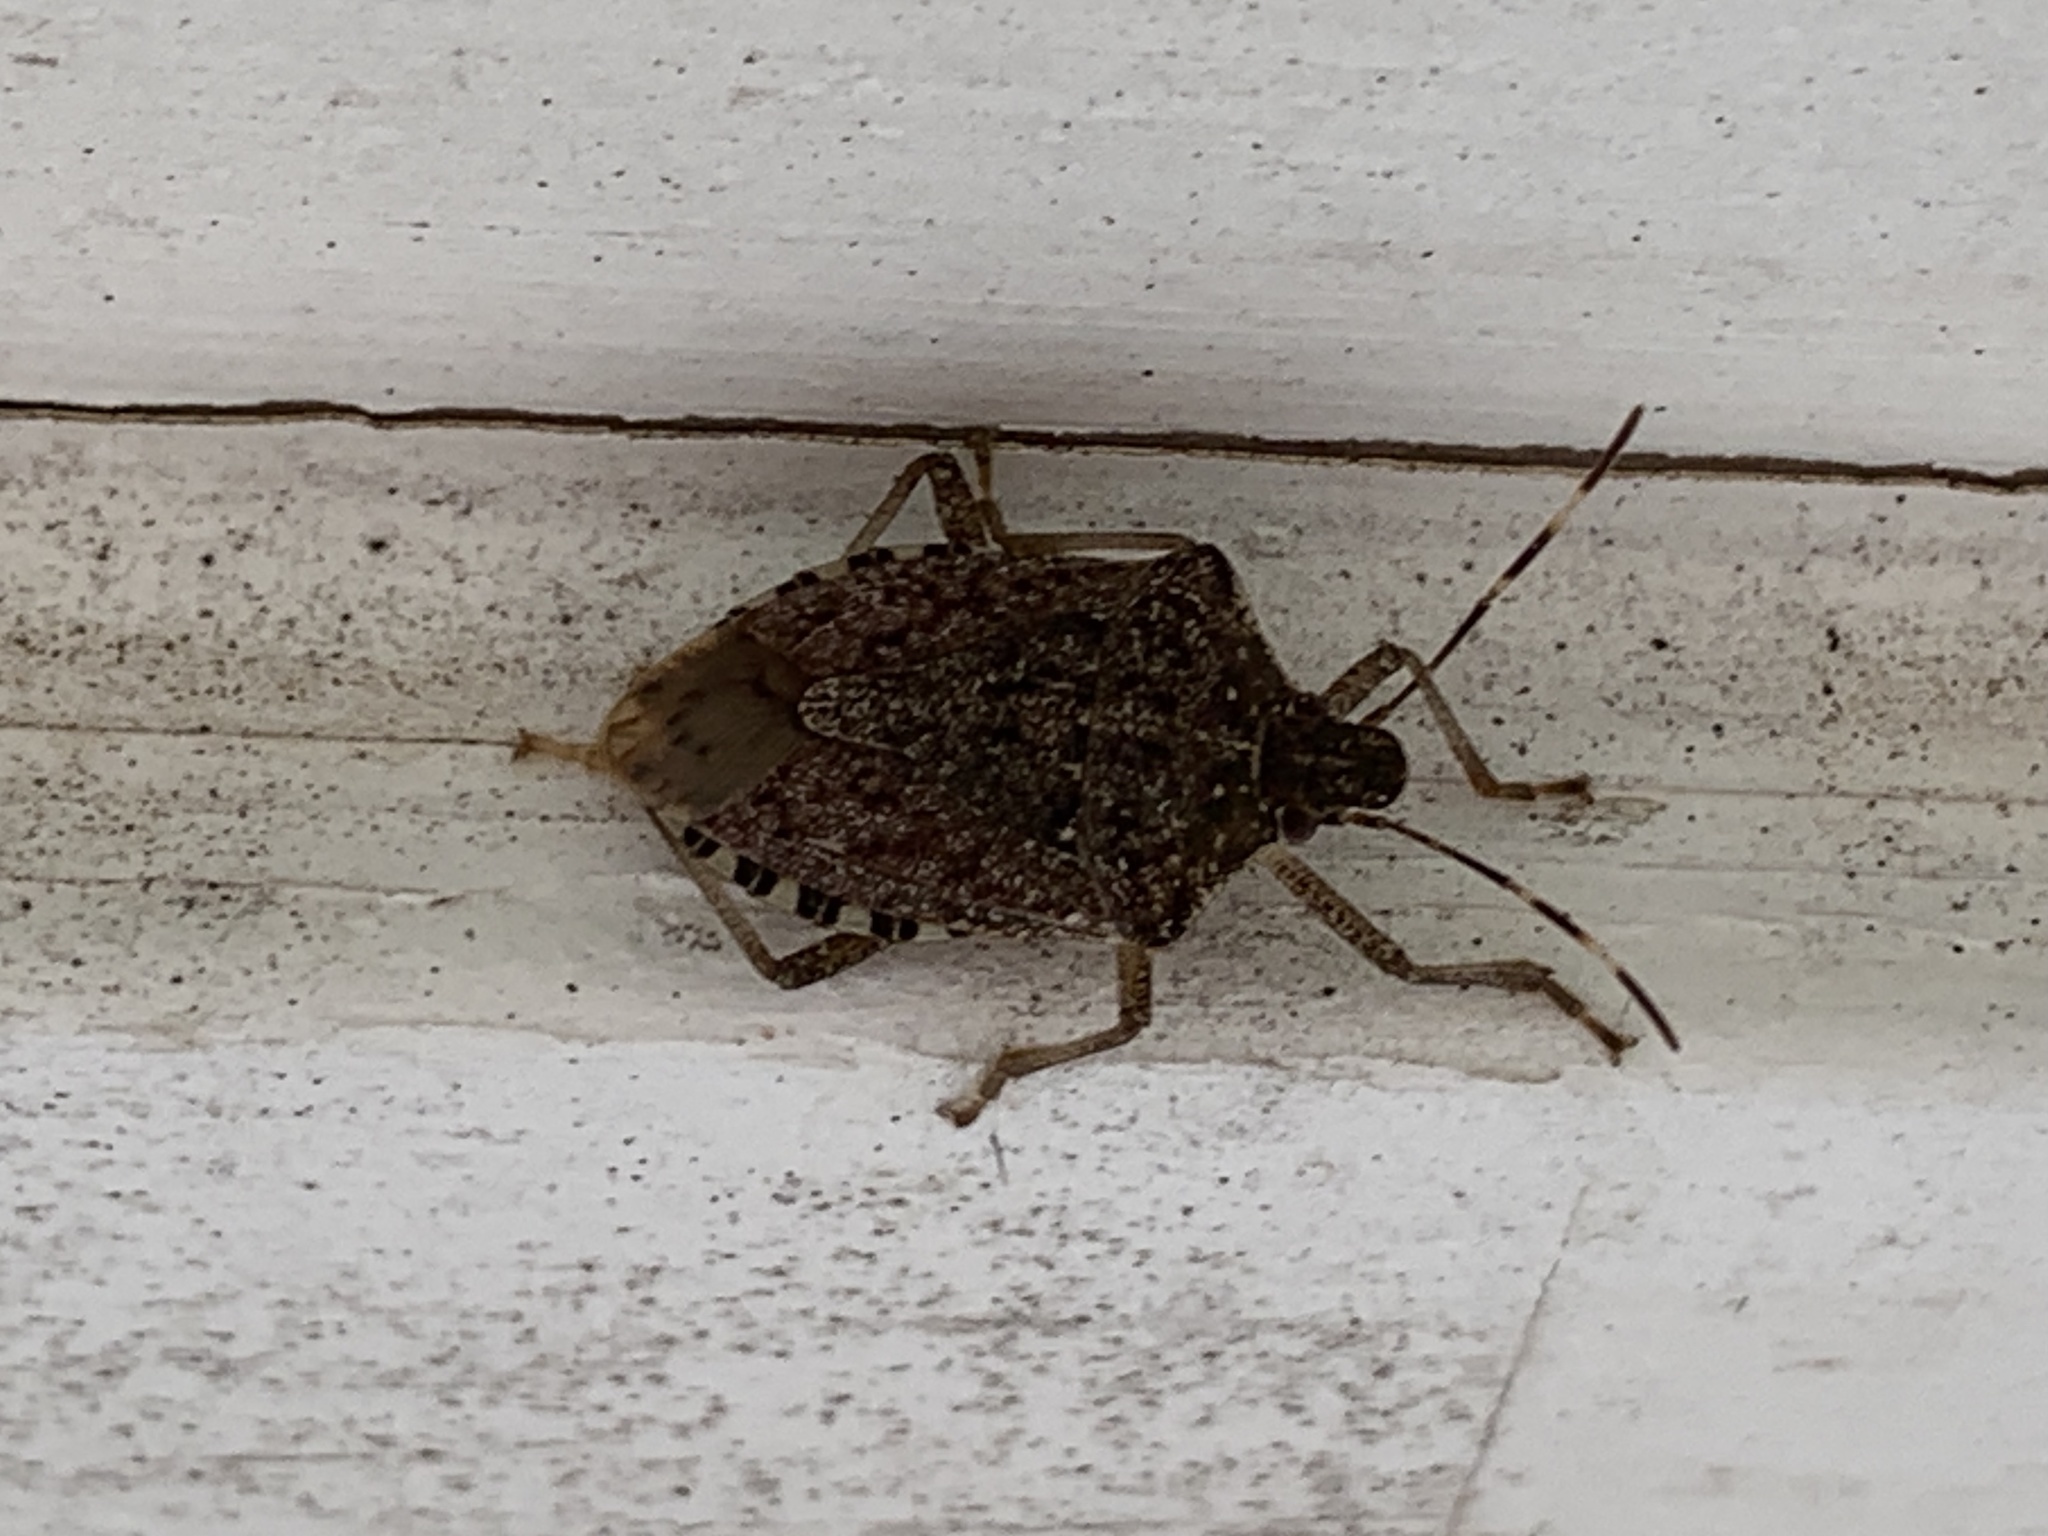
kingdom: Animalia
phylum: Arthropoda
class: Insecta
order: Hemiptera
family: Pentatomidae
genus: Halyomorpha
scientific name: Halyomorpha halys
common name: Brown marmorated stink bug
